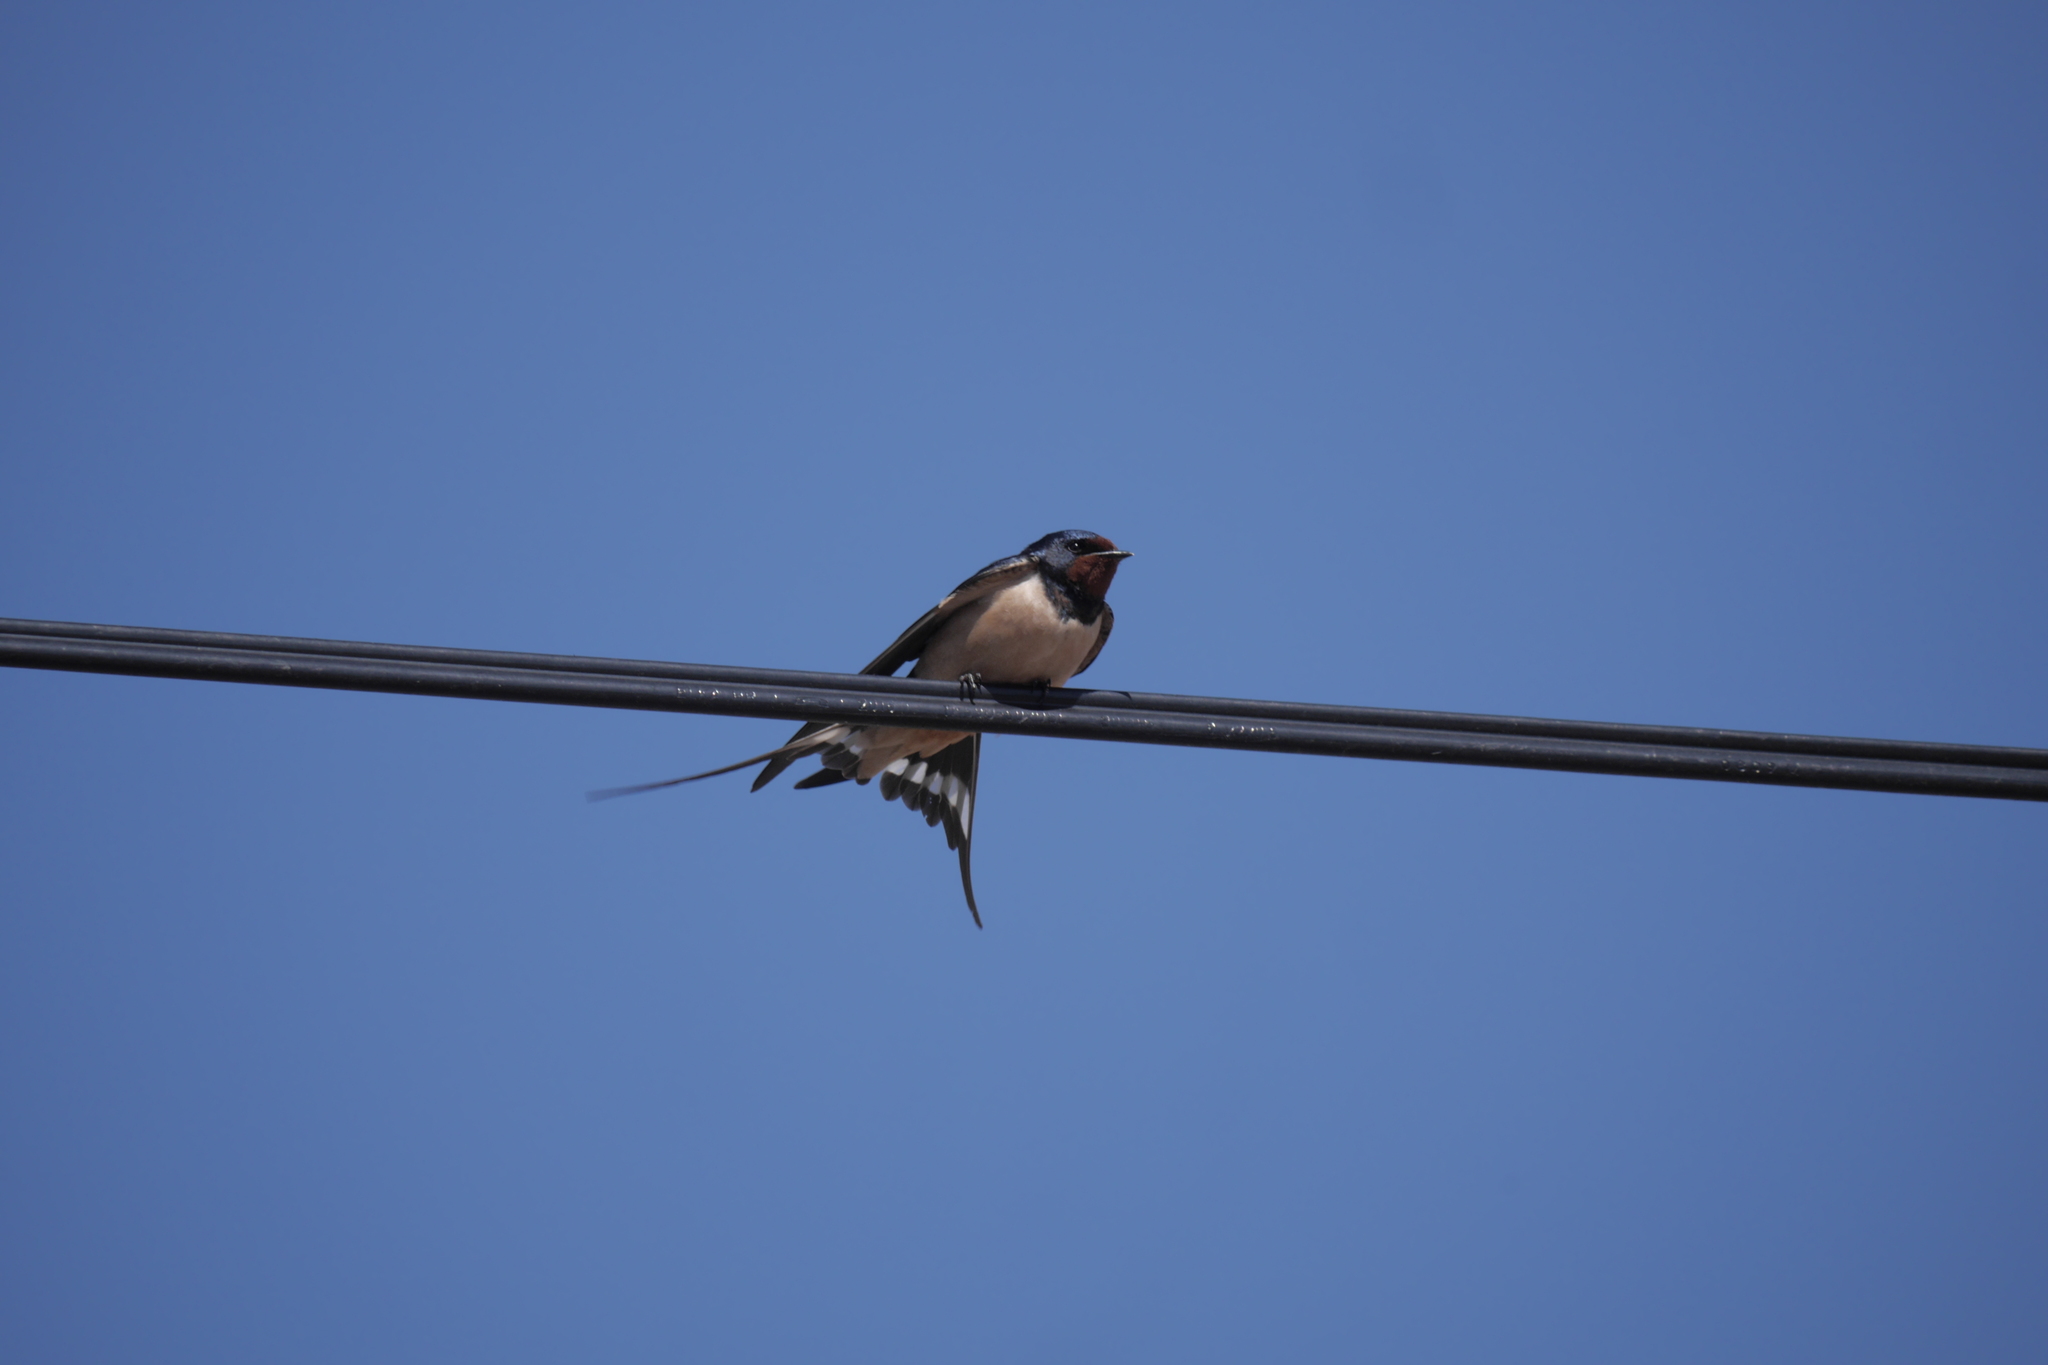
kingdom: Animalia
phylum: Chordata
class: Aves
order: Passeriformes
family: Hirundinidae
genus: Hirundo
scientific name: Hirundo rustica
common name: Barn swallow
